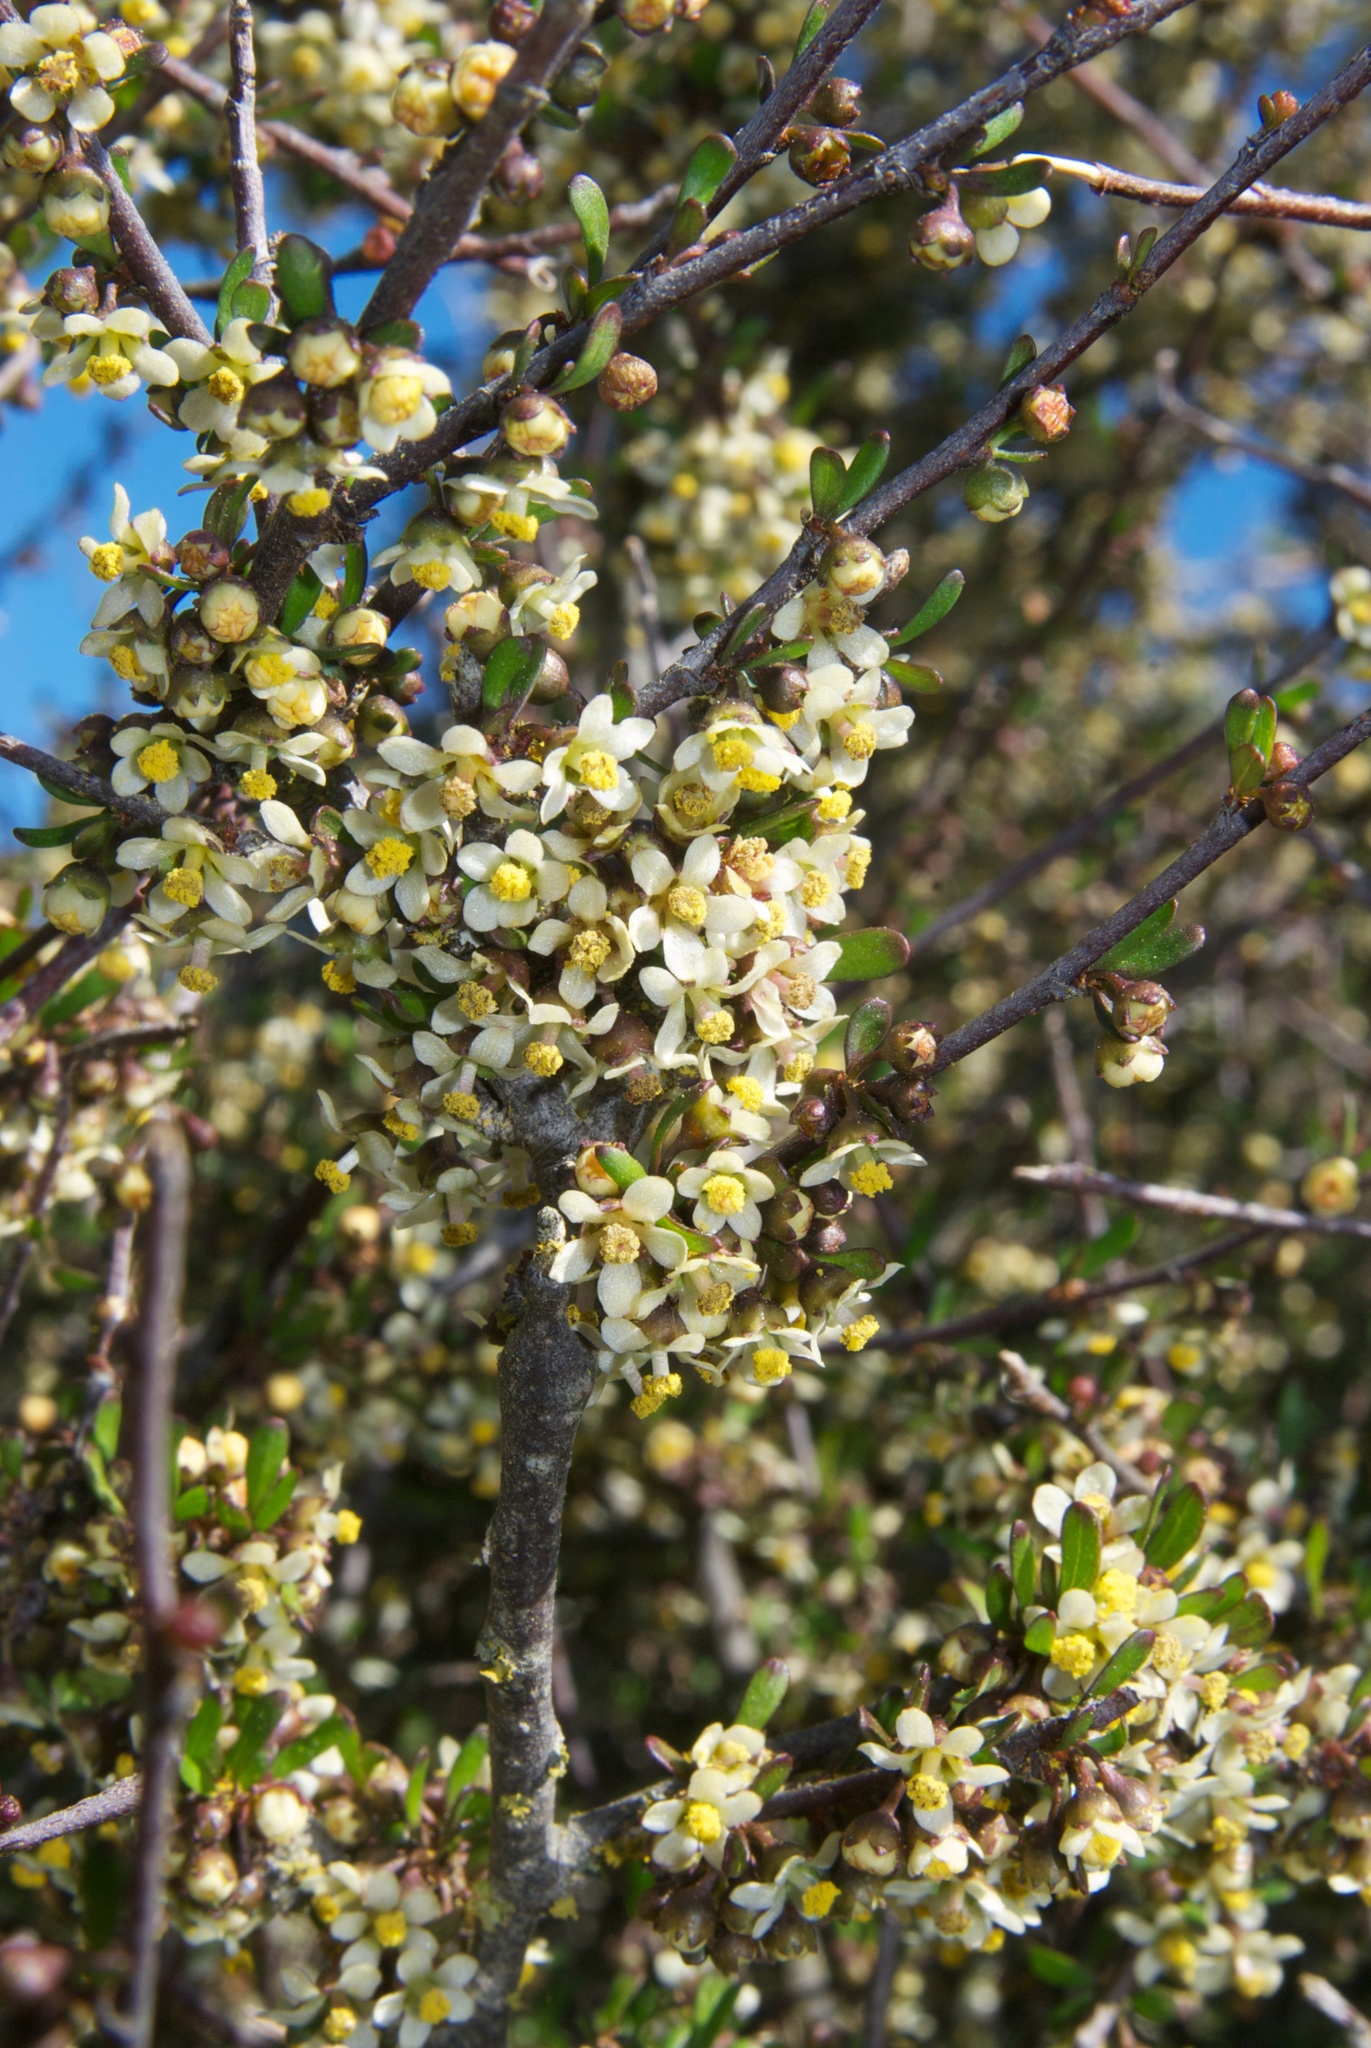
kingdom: Plantae
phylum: Tracheophyta
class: Magnoliopsida
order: Malvales
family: Malvaceae
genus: Plagianthus
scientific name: Plagianthus divaricatus
